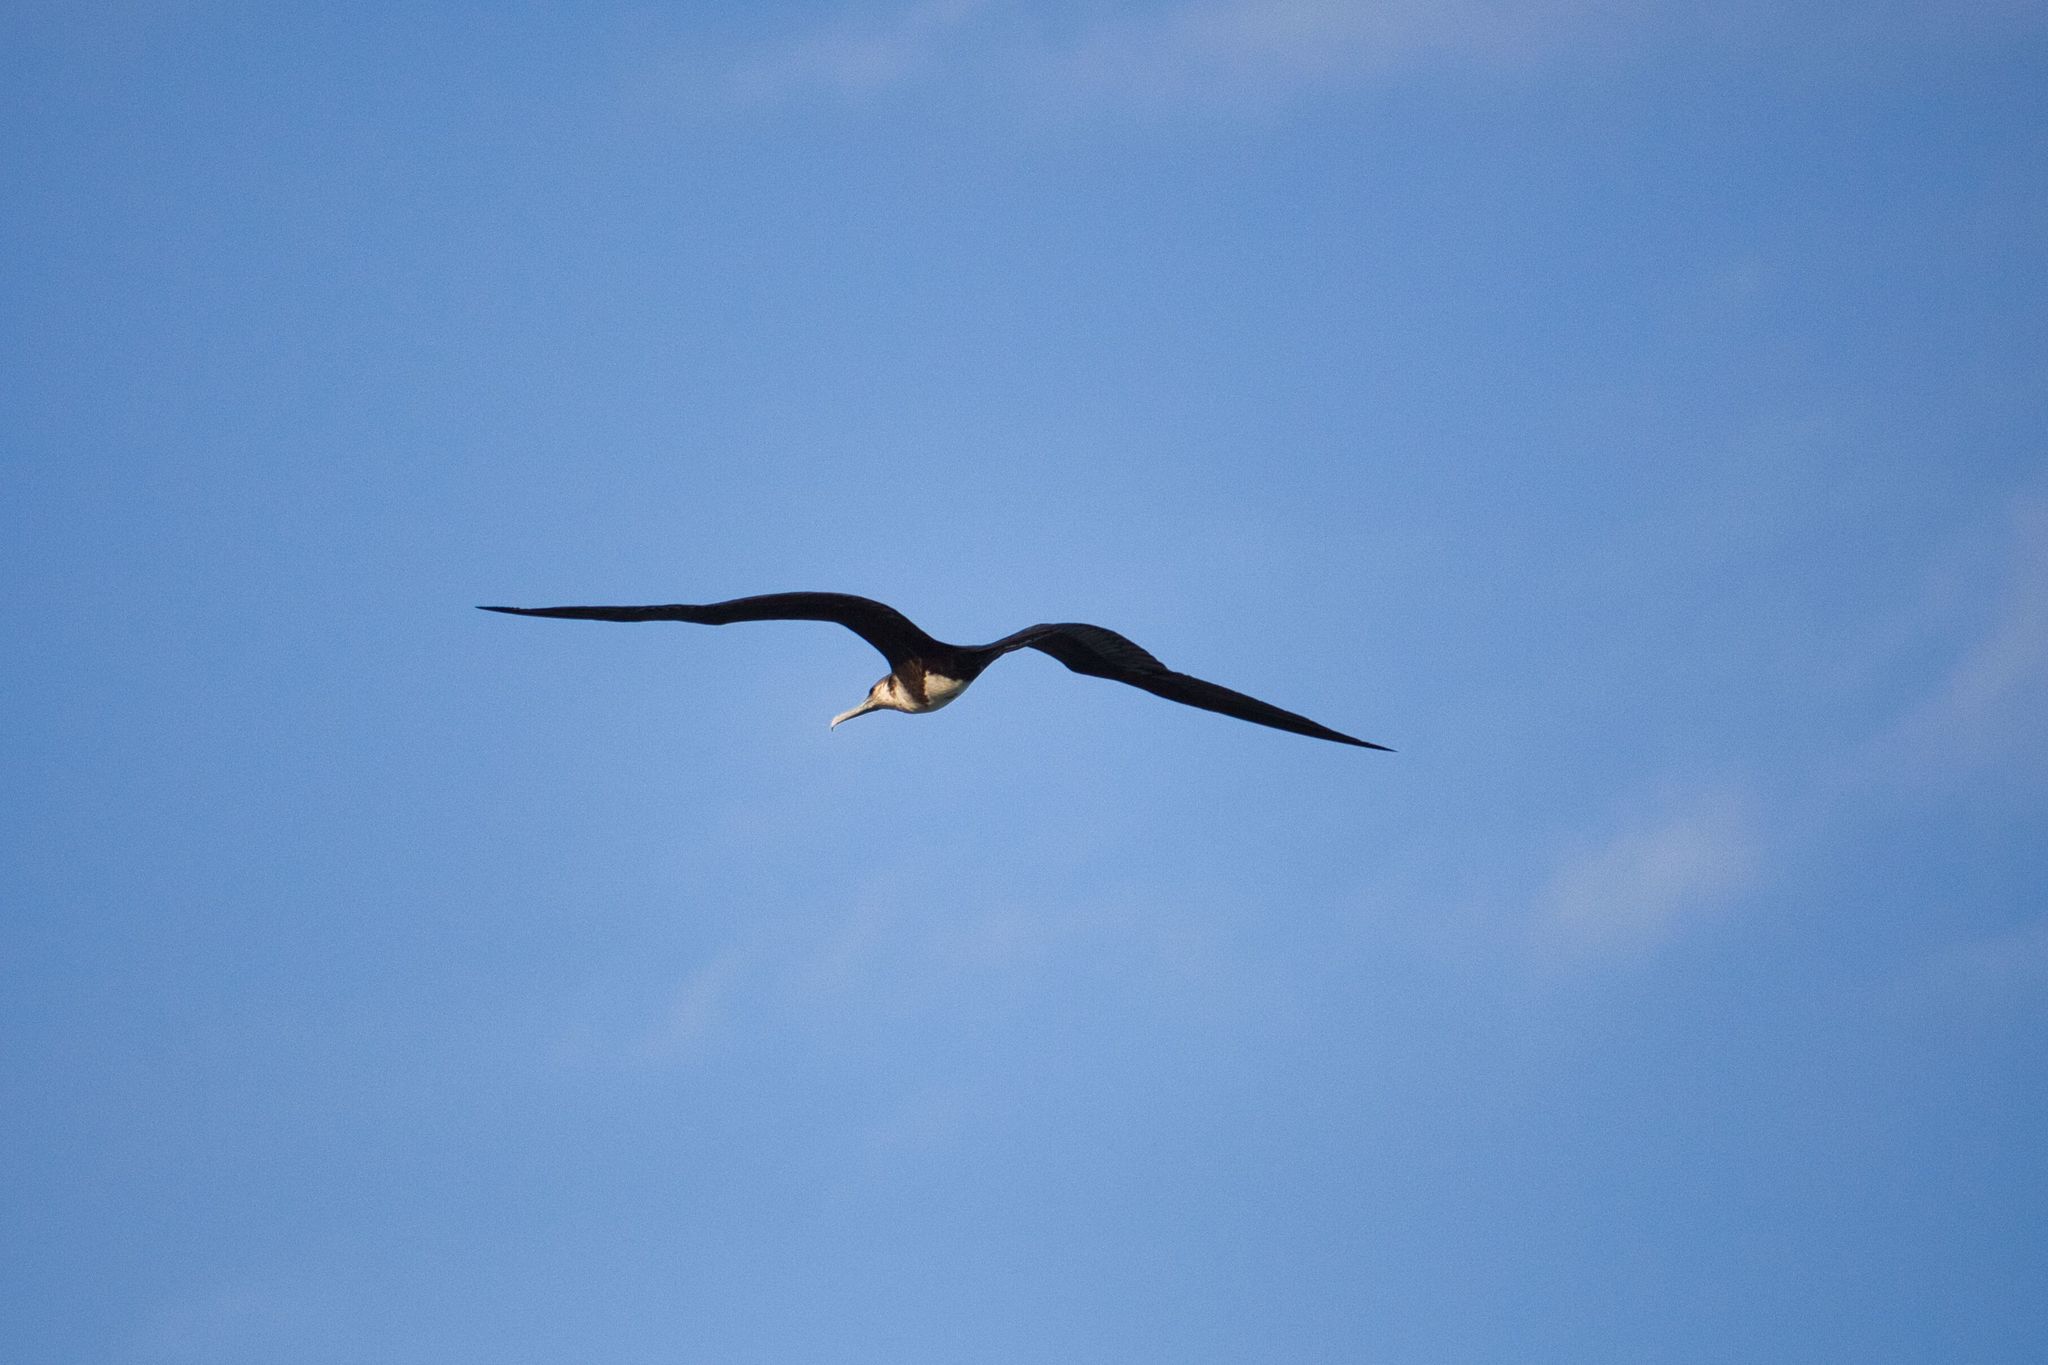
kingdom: Animalia
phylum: Chordata
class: Aves
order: Suliformes
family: Fregatidae
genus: Fregata
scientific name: Fregata magnificens
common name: Magnificent frigatebird
